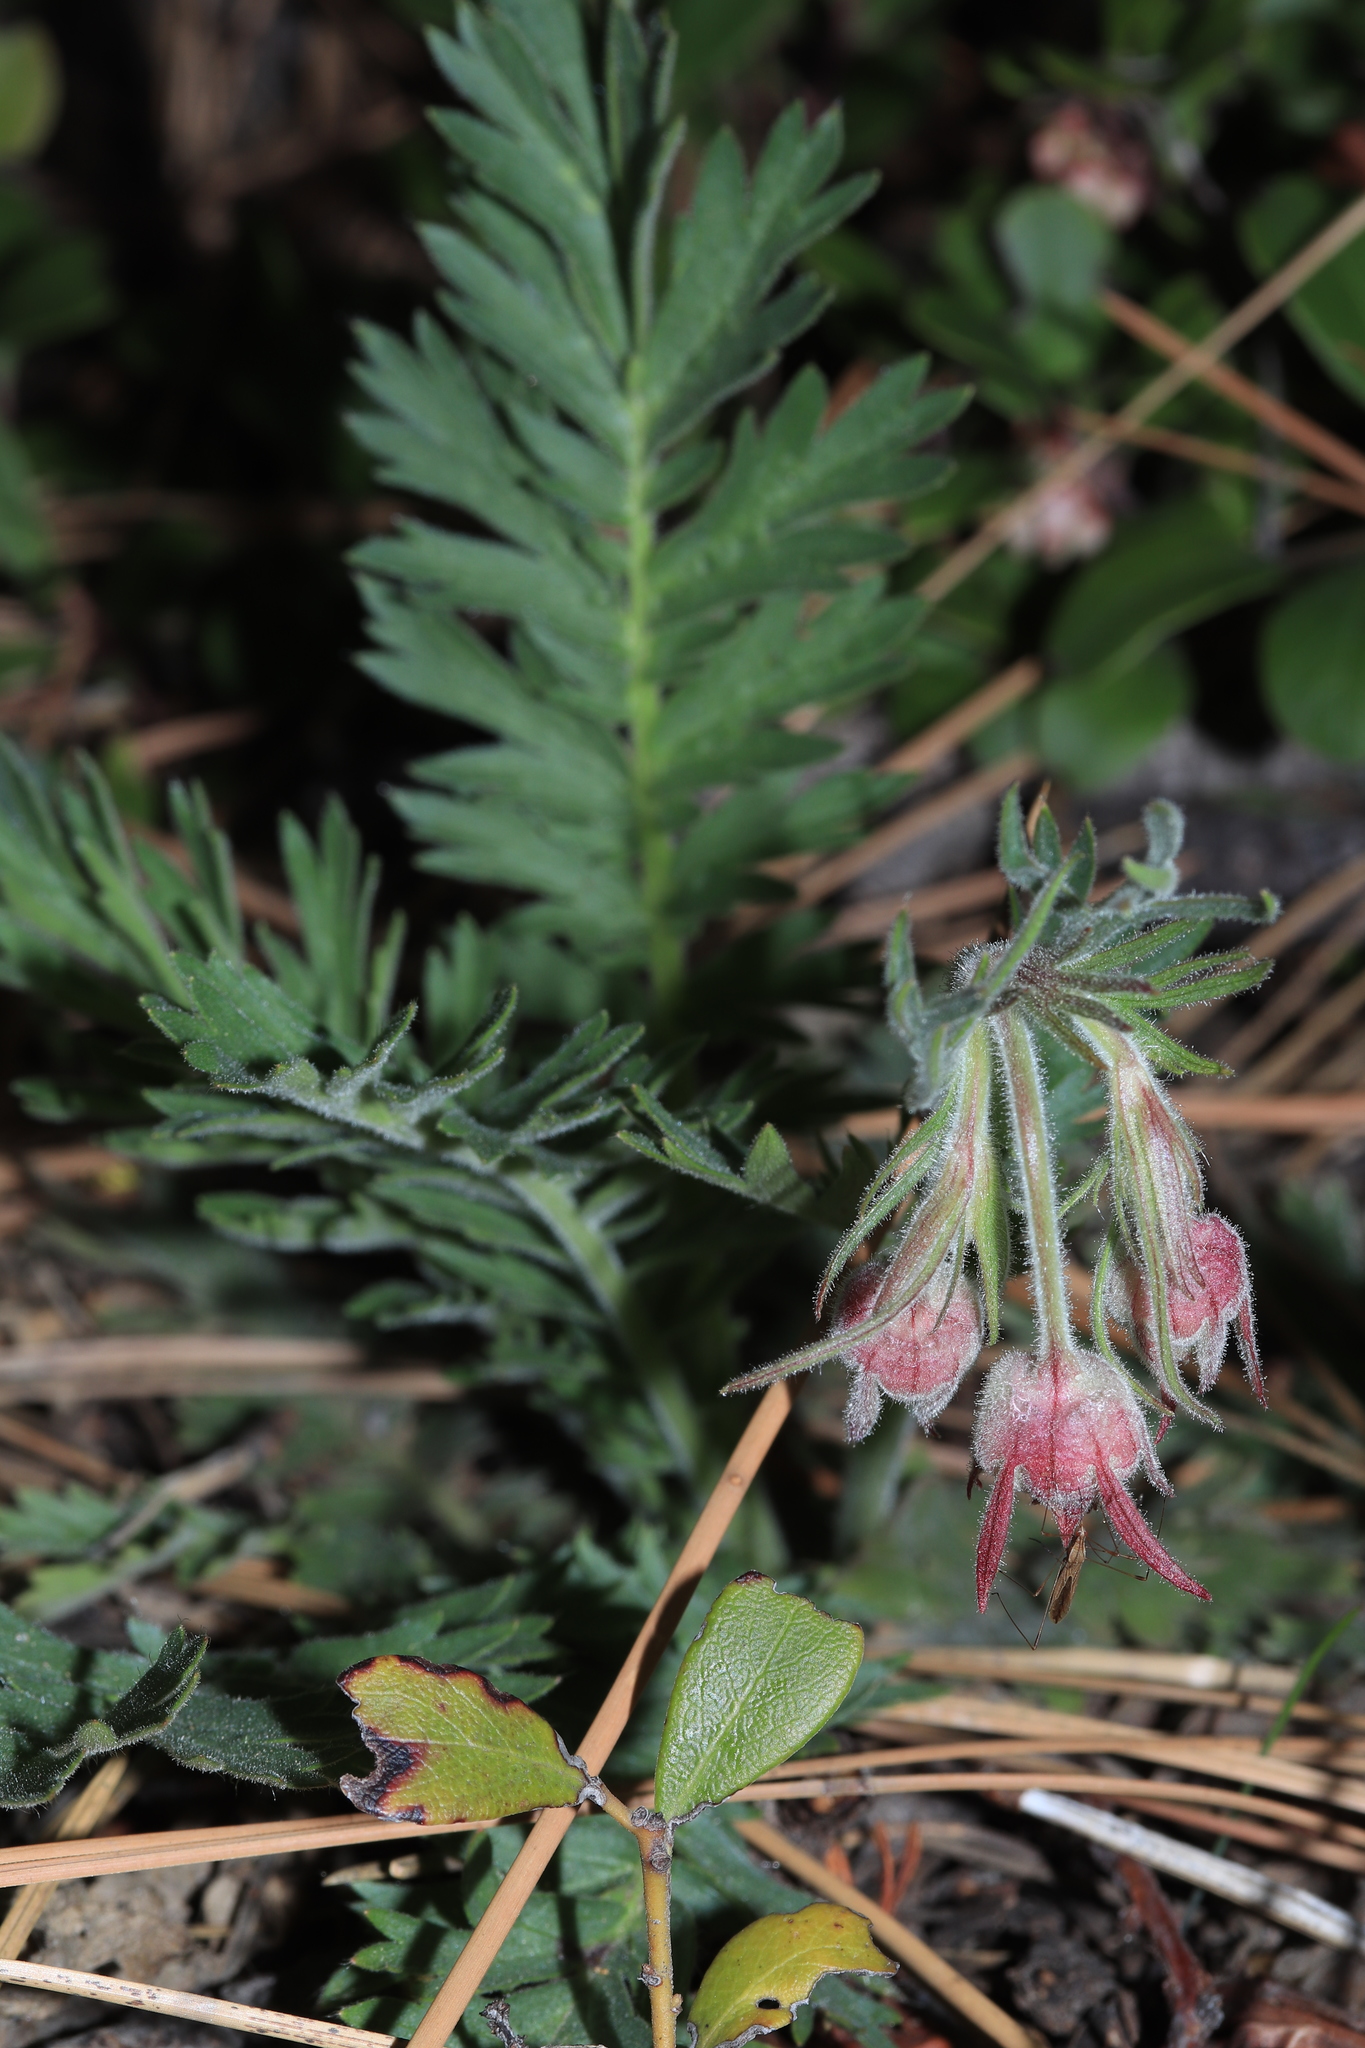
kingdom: Plantae
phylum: Tracheophyta
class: Magnoliopsida
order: Rosales
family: Rosaceae
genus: Geum
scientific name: Geum triflorum
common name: Old man's whiskers
